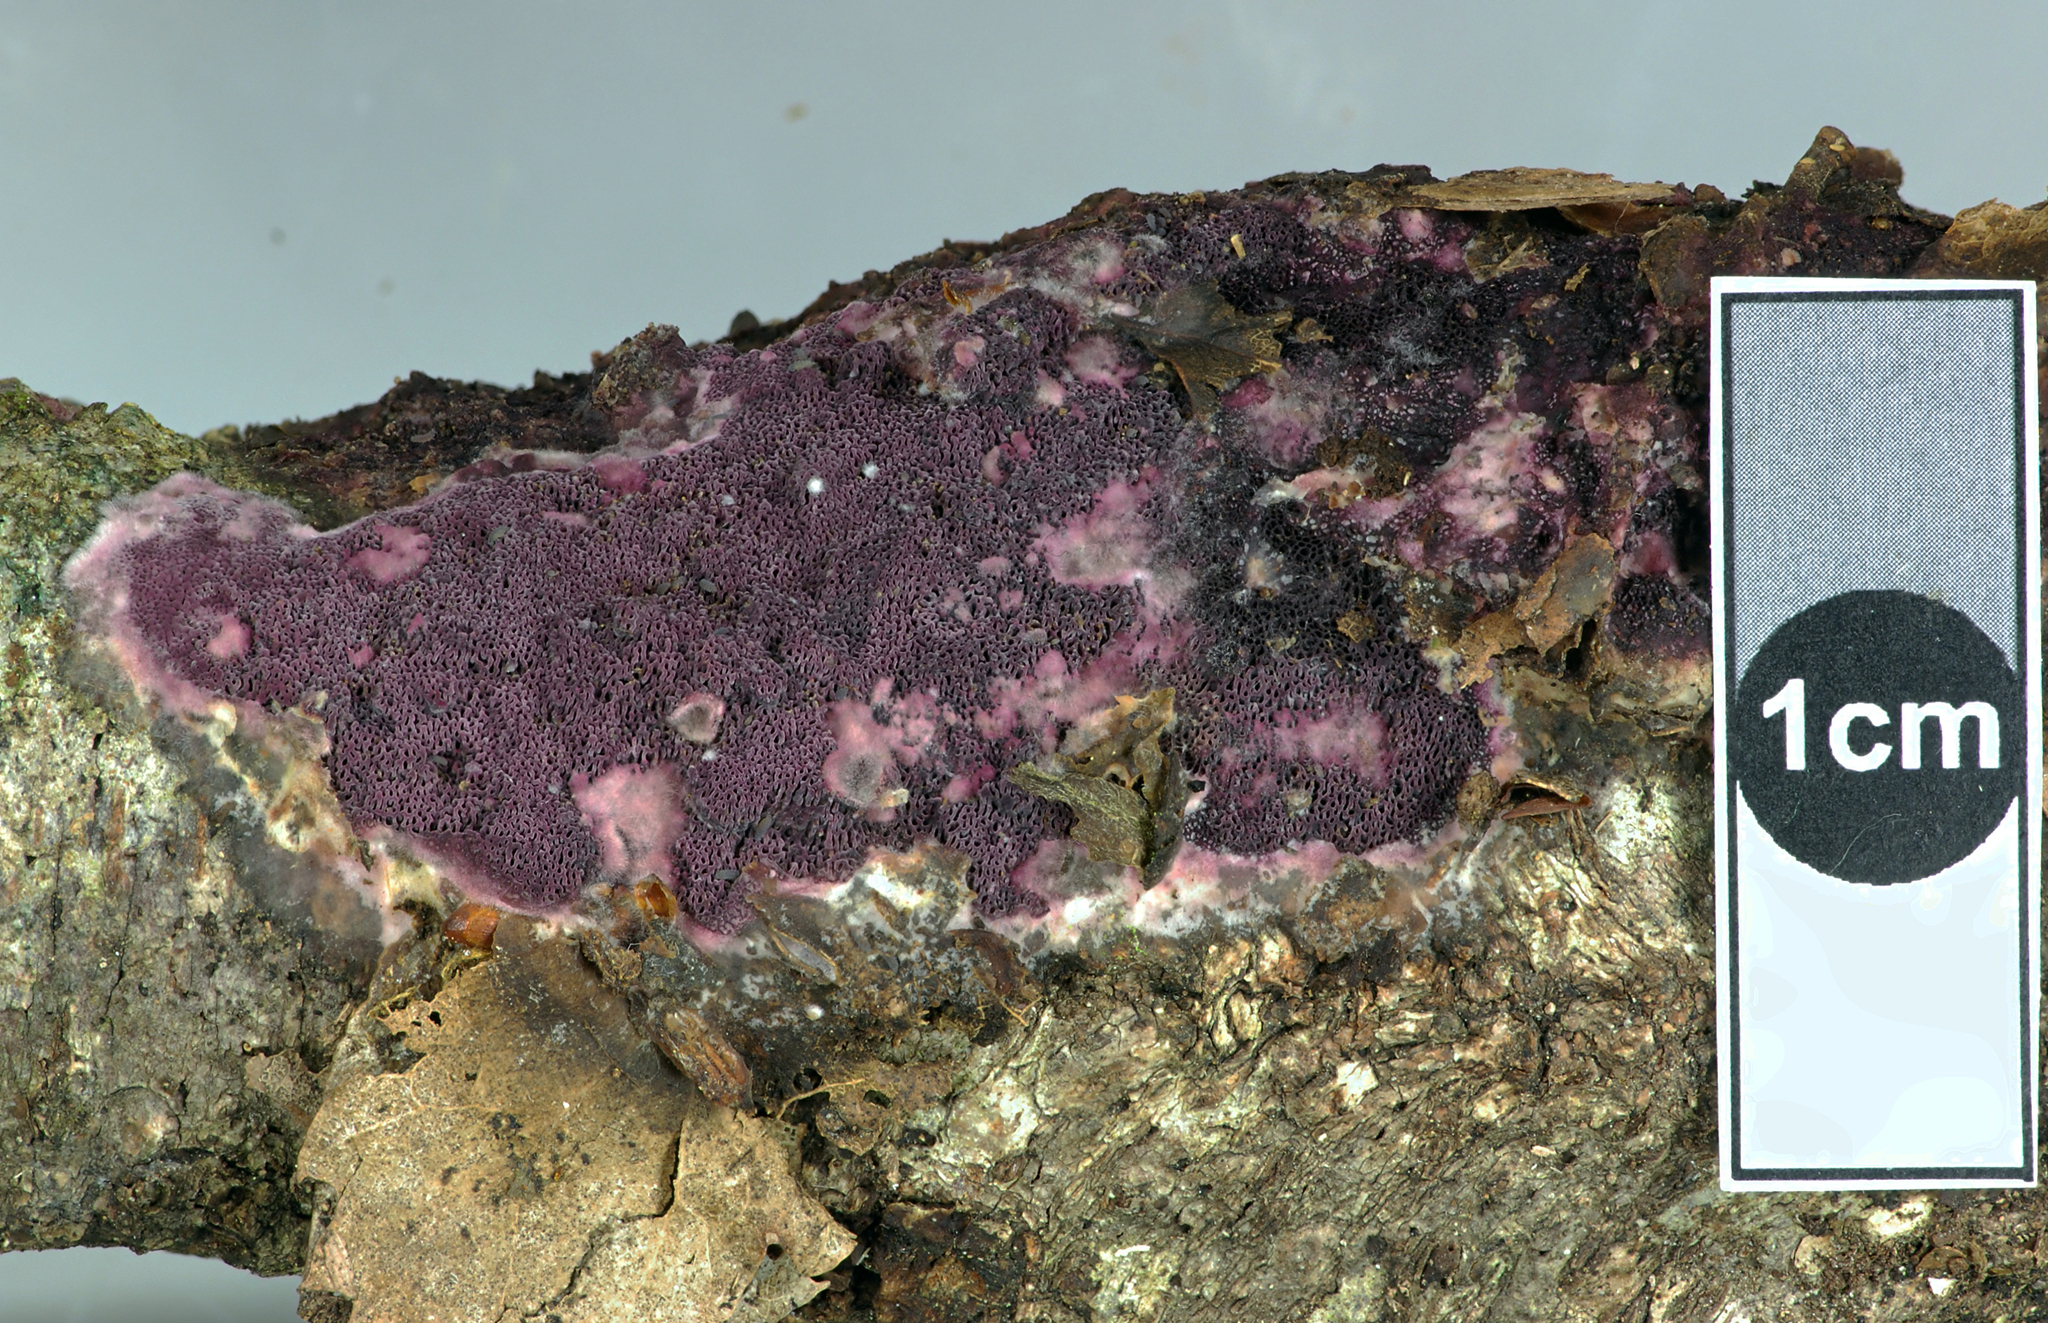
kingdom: Fungi
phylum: Basidiomycota
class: Agaricomycetes
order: Polyporales
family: Irpicaceae
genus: Byssomerulius
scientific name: Byssomerulius psittacinus
